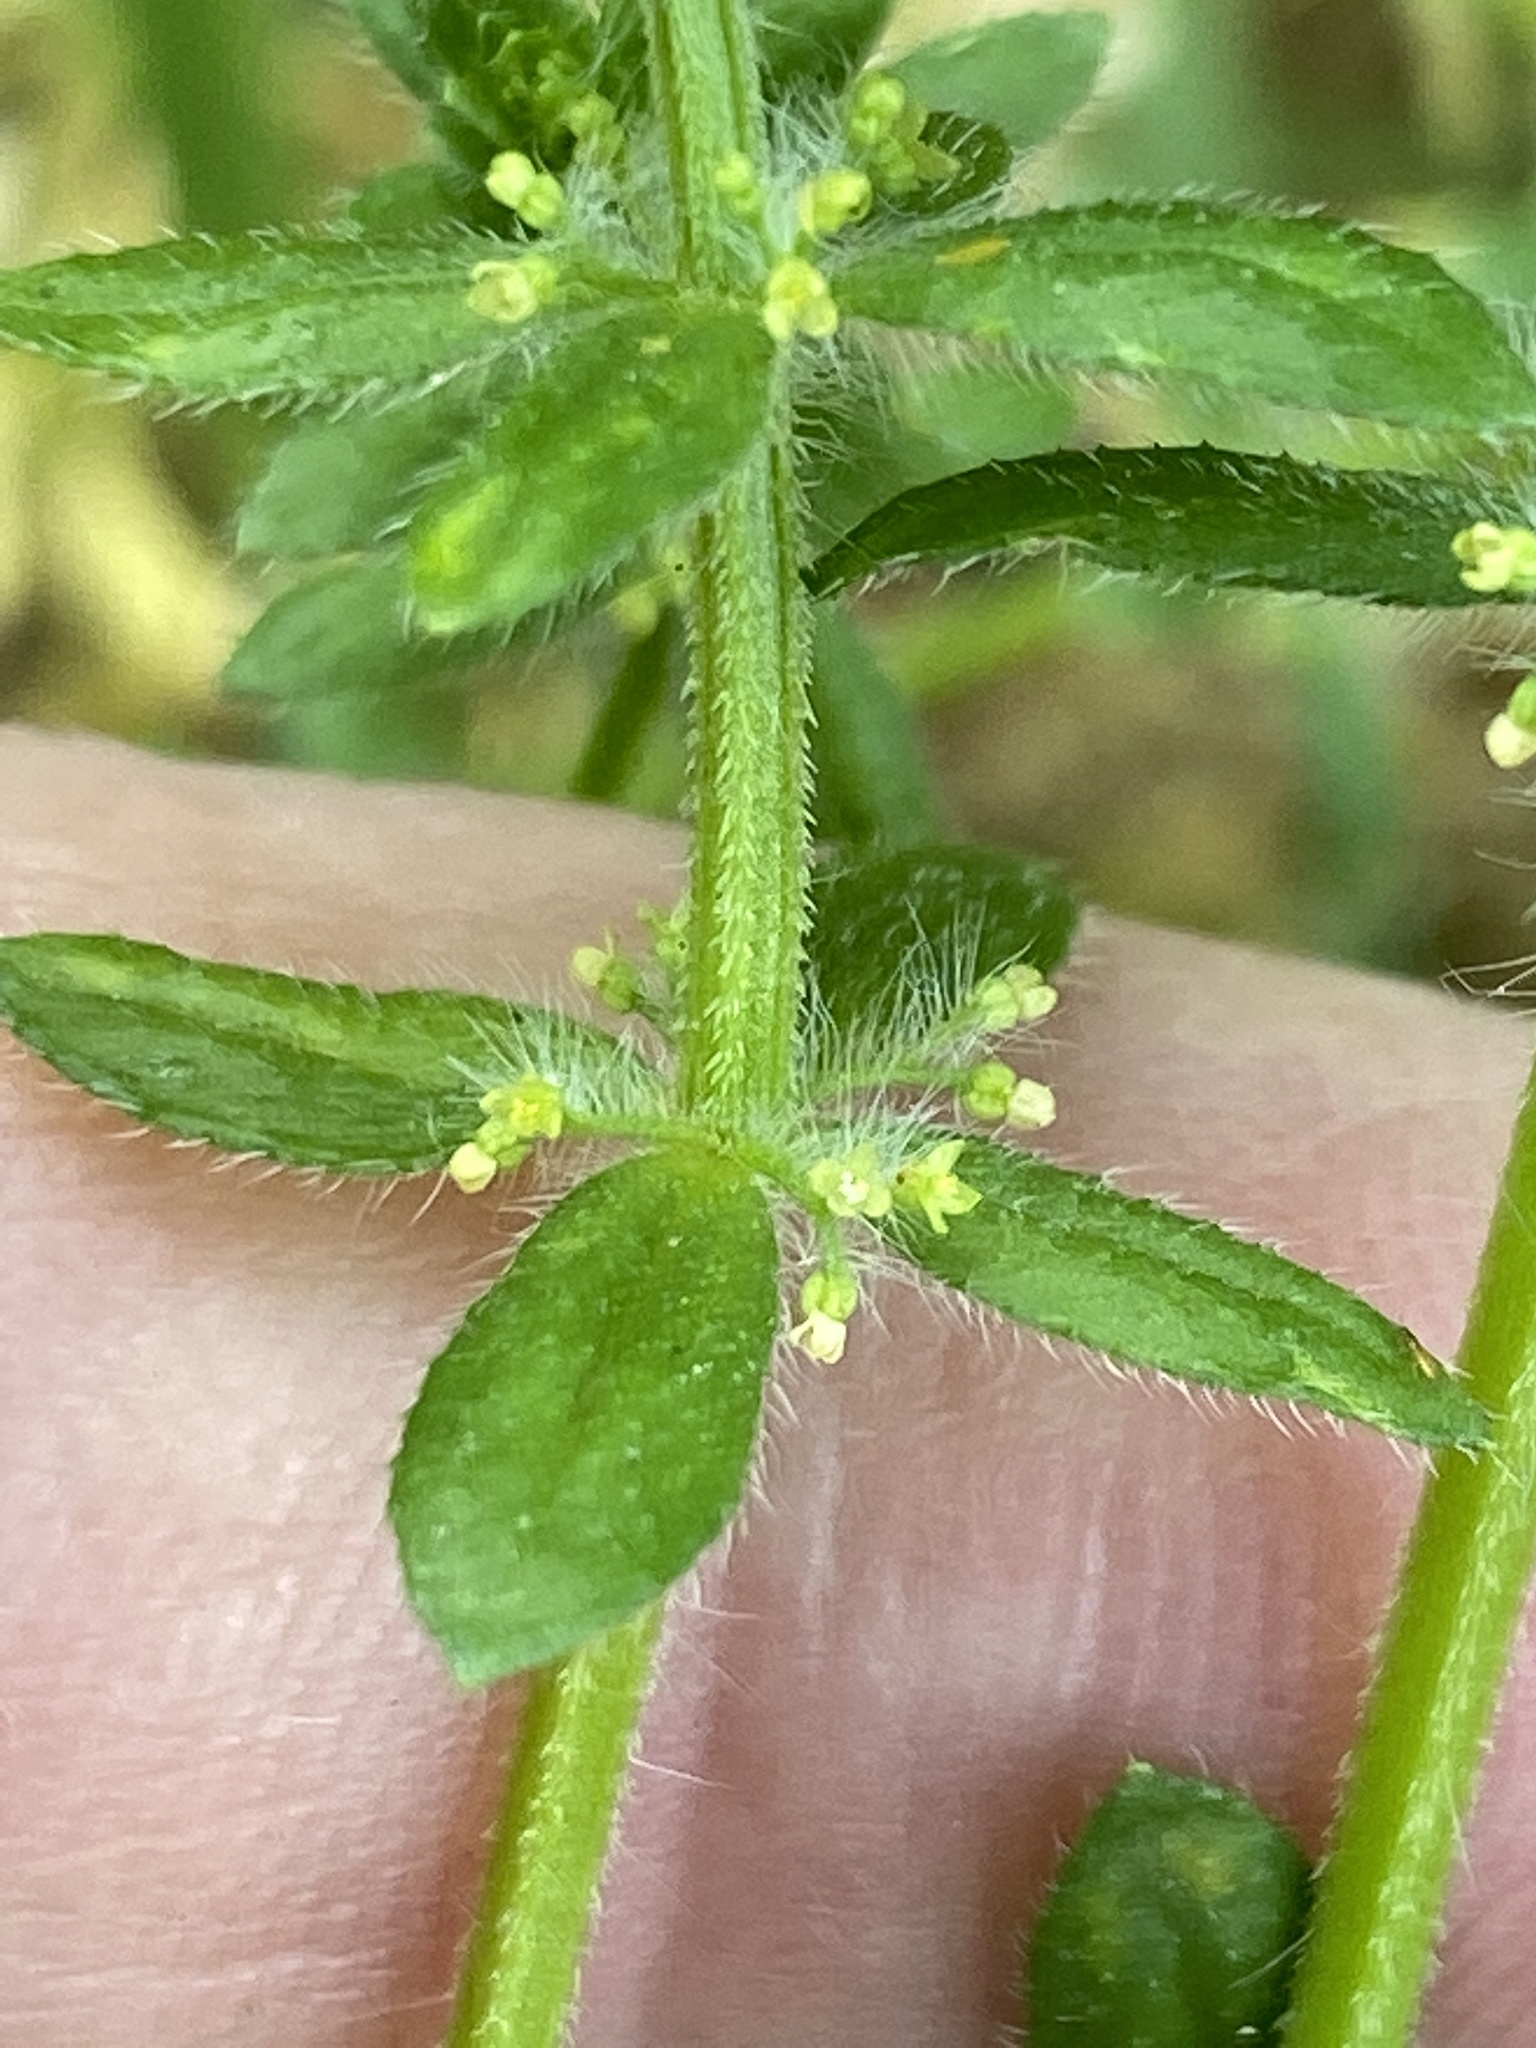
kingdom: Plantae
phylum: Tracheophyta
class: Magnoliopsida
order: Gentianales
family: Rubiaceae
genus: Cruciata
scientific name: Cruciata pedemontana
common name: Piedmont bedstraw
